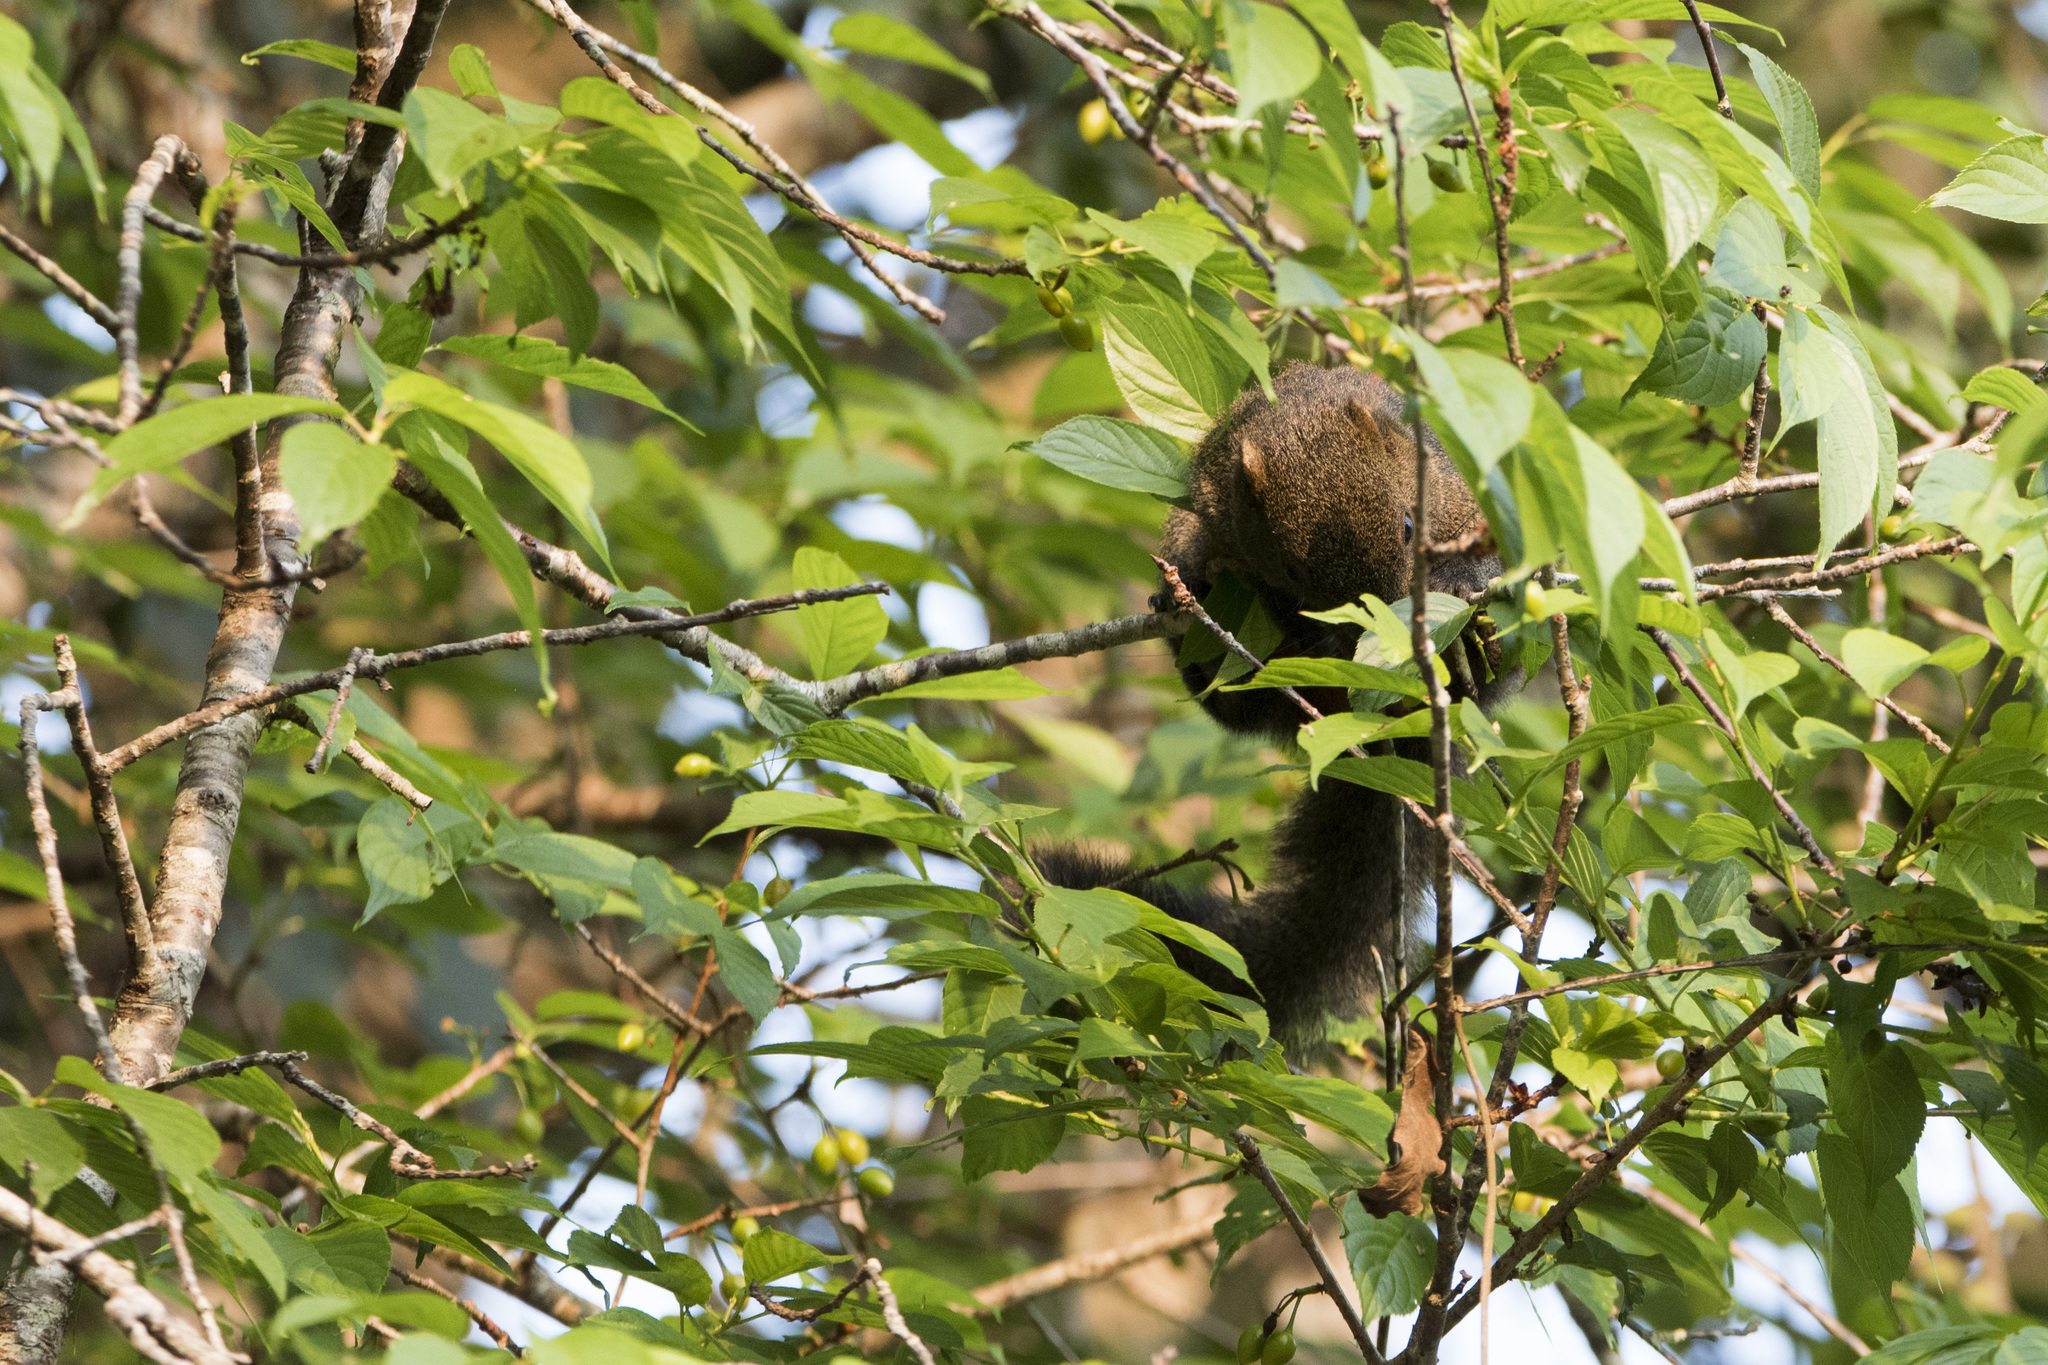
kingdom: Animalia
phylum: Chordata
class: Mammalia
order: Rodentia
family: Sciuridae
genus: Callosciurus
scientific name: Callosciurus erythraeus
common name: Pallas's squirrel
